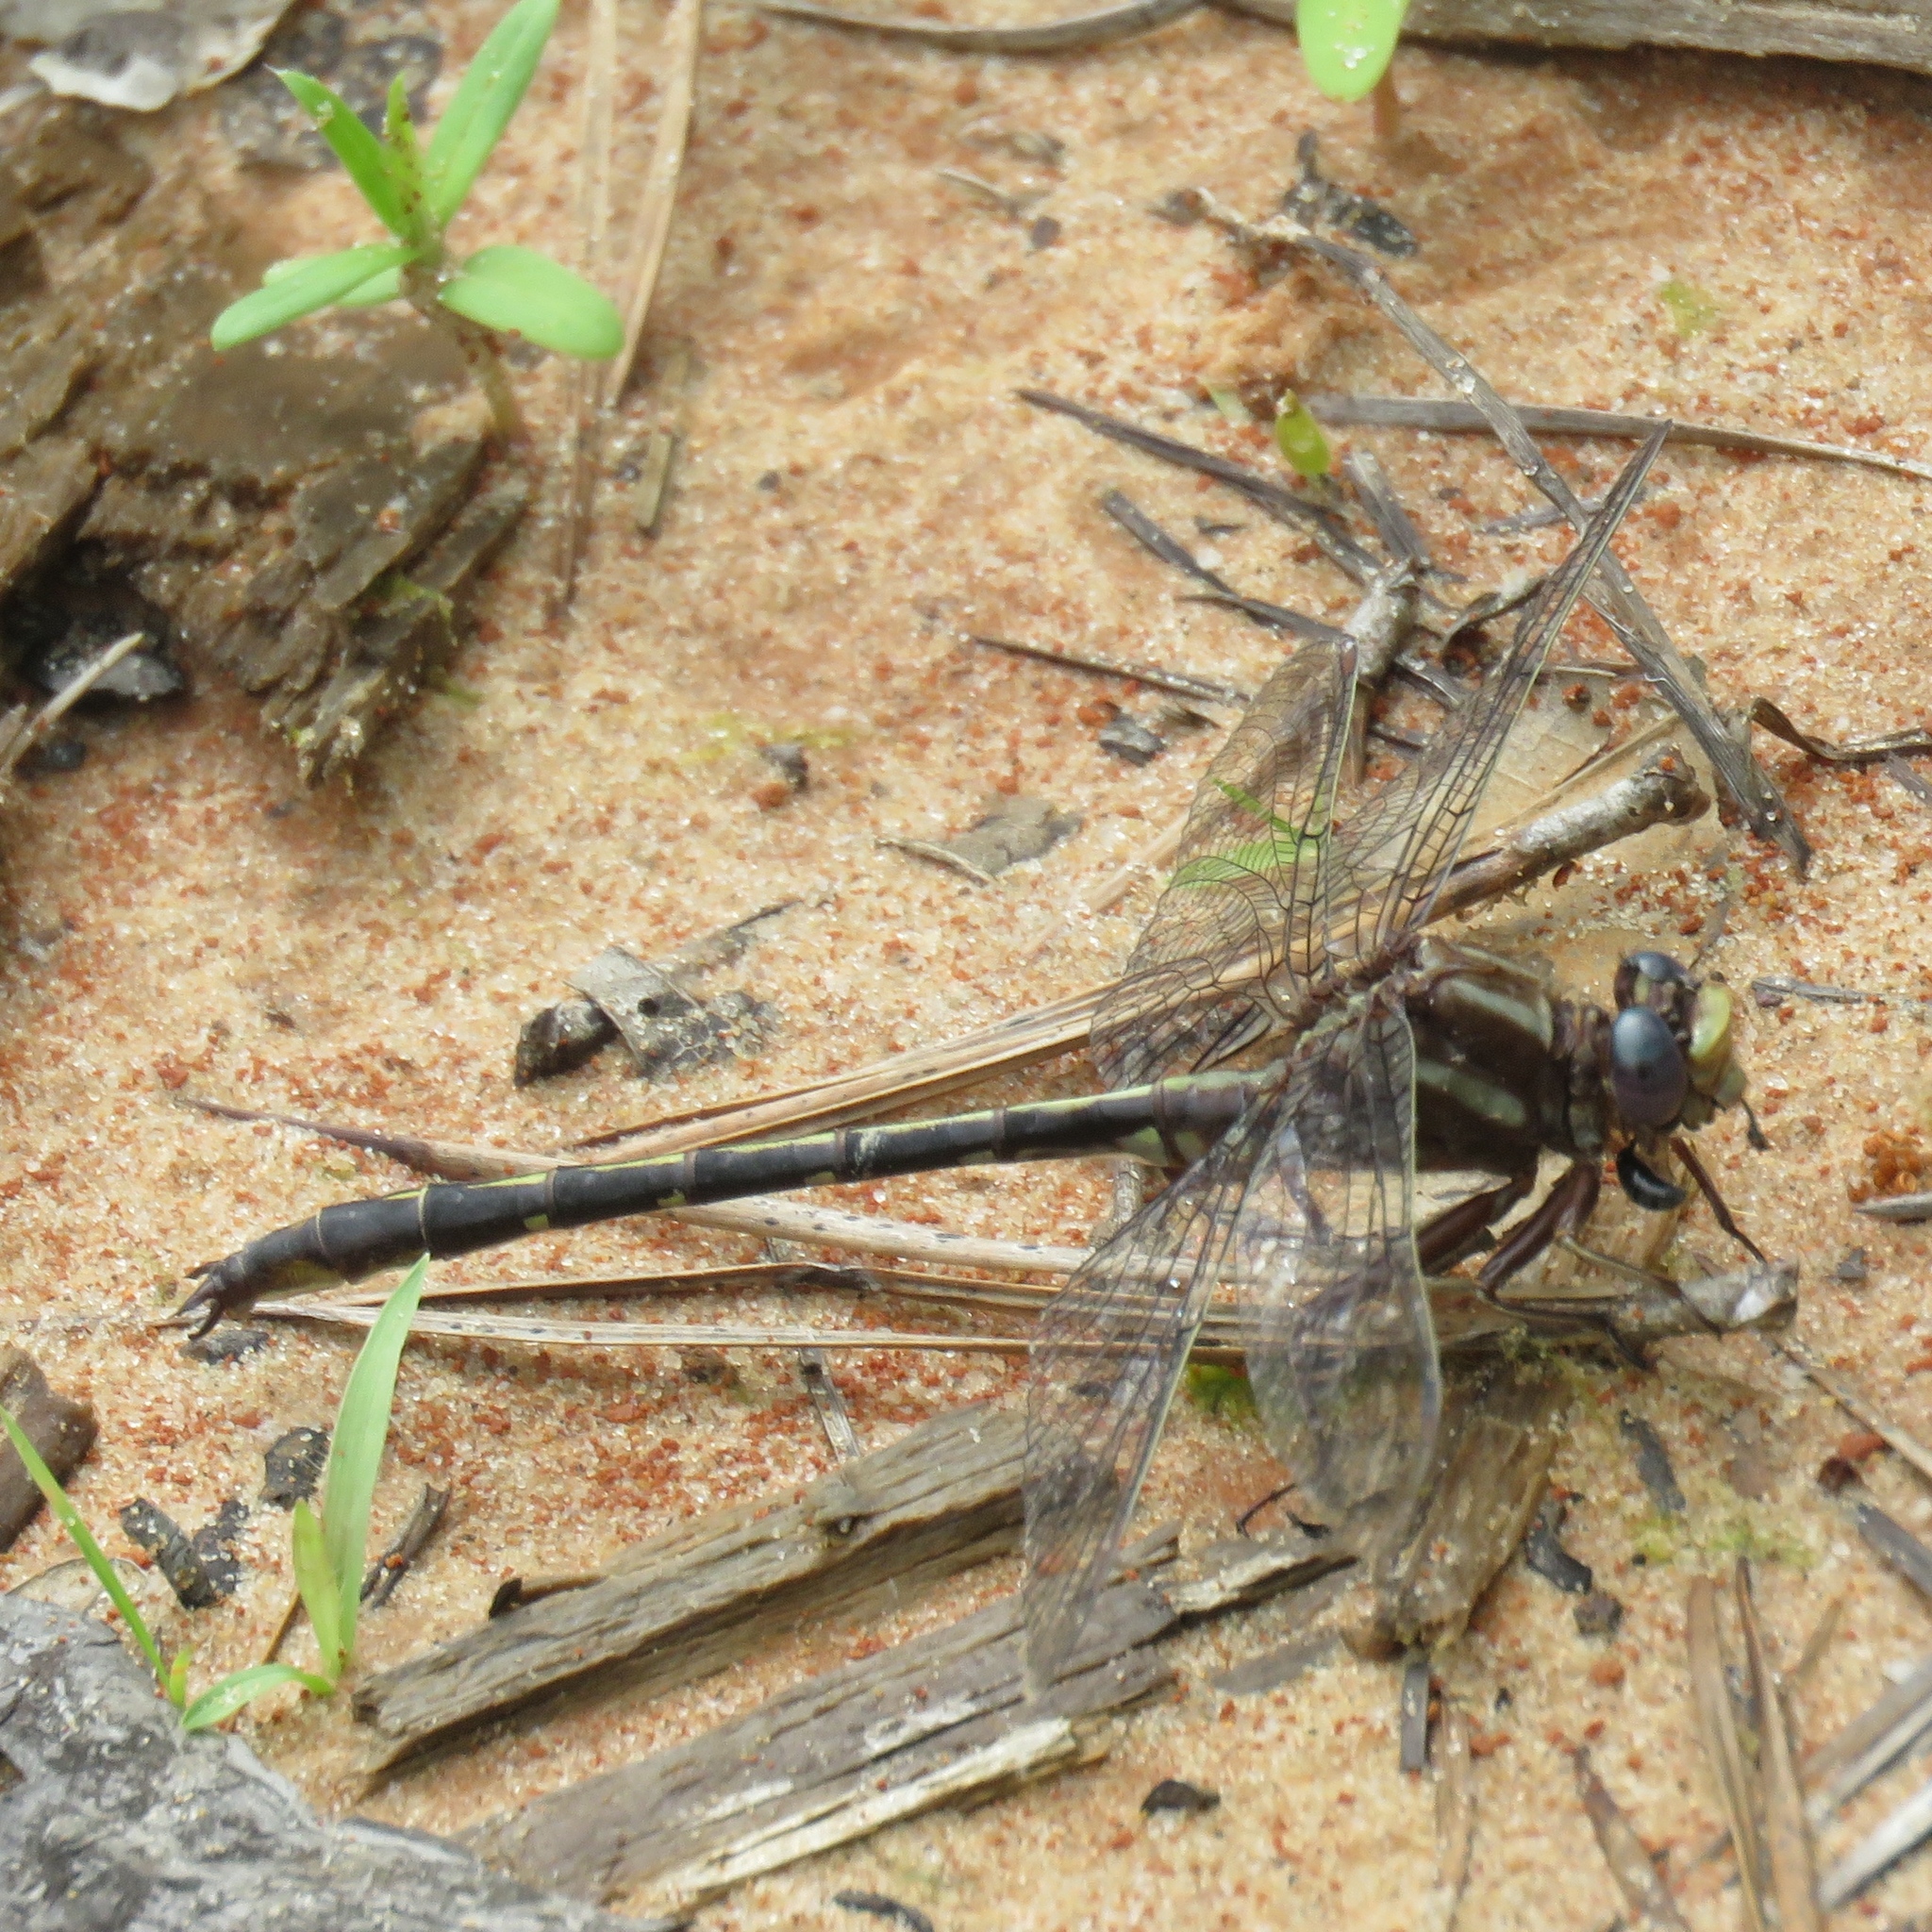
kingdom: Animalia
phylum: Arthropoda
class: Insecta
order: Odonata
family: Gomphidae
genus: Phanogomphus
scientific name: Phanogomphus lividus
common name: Ashy clubtail
